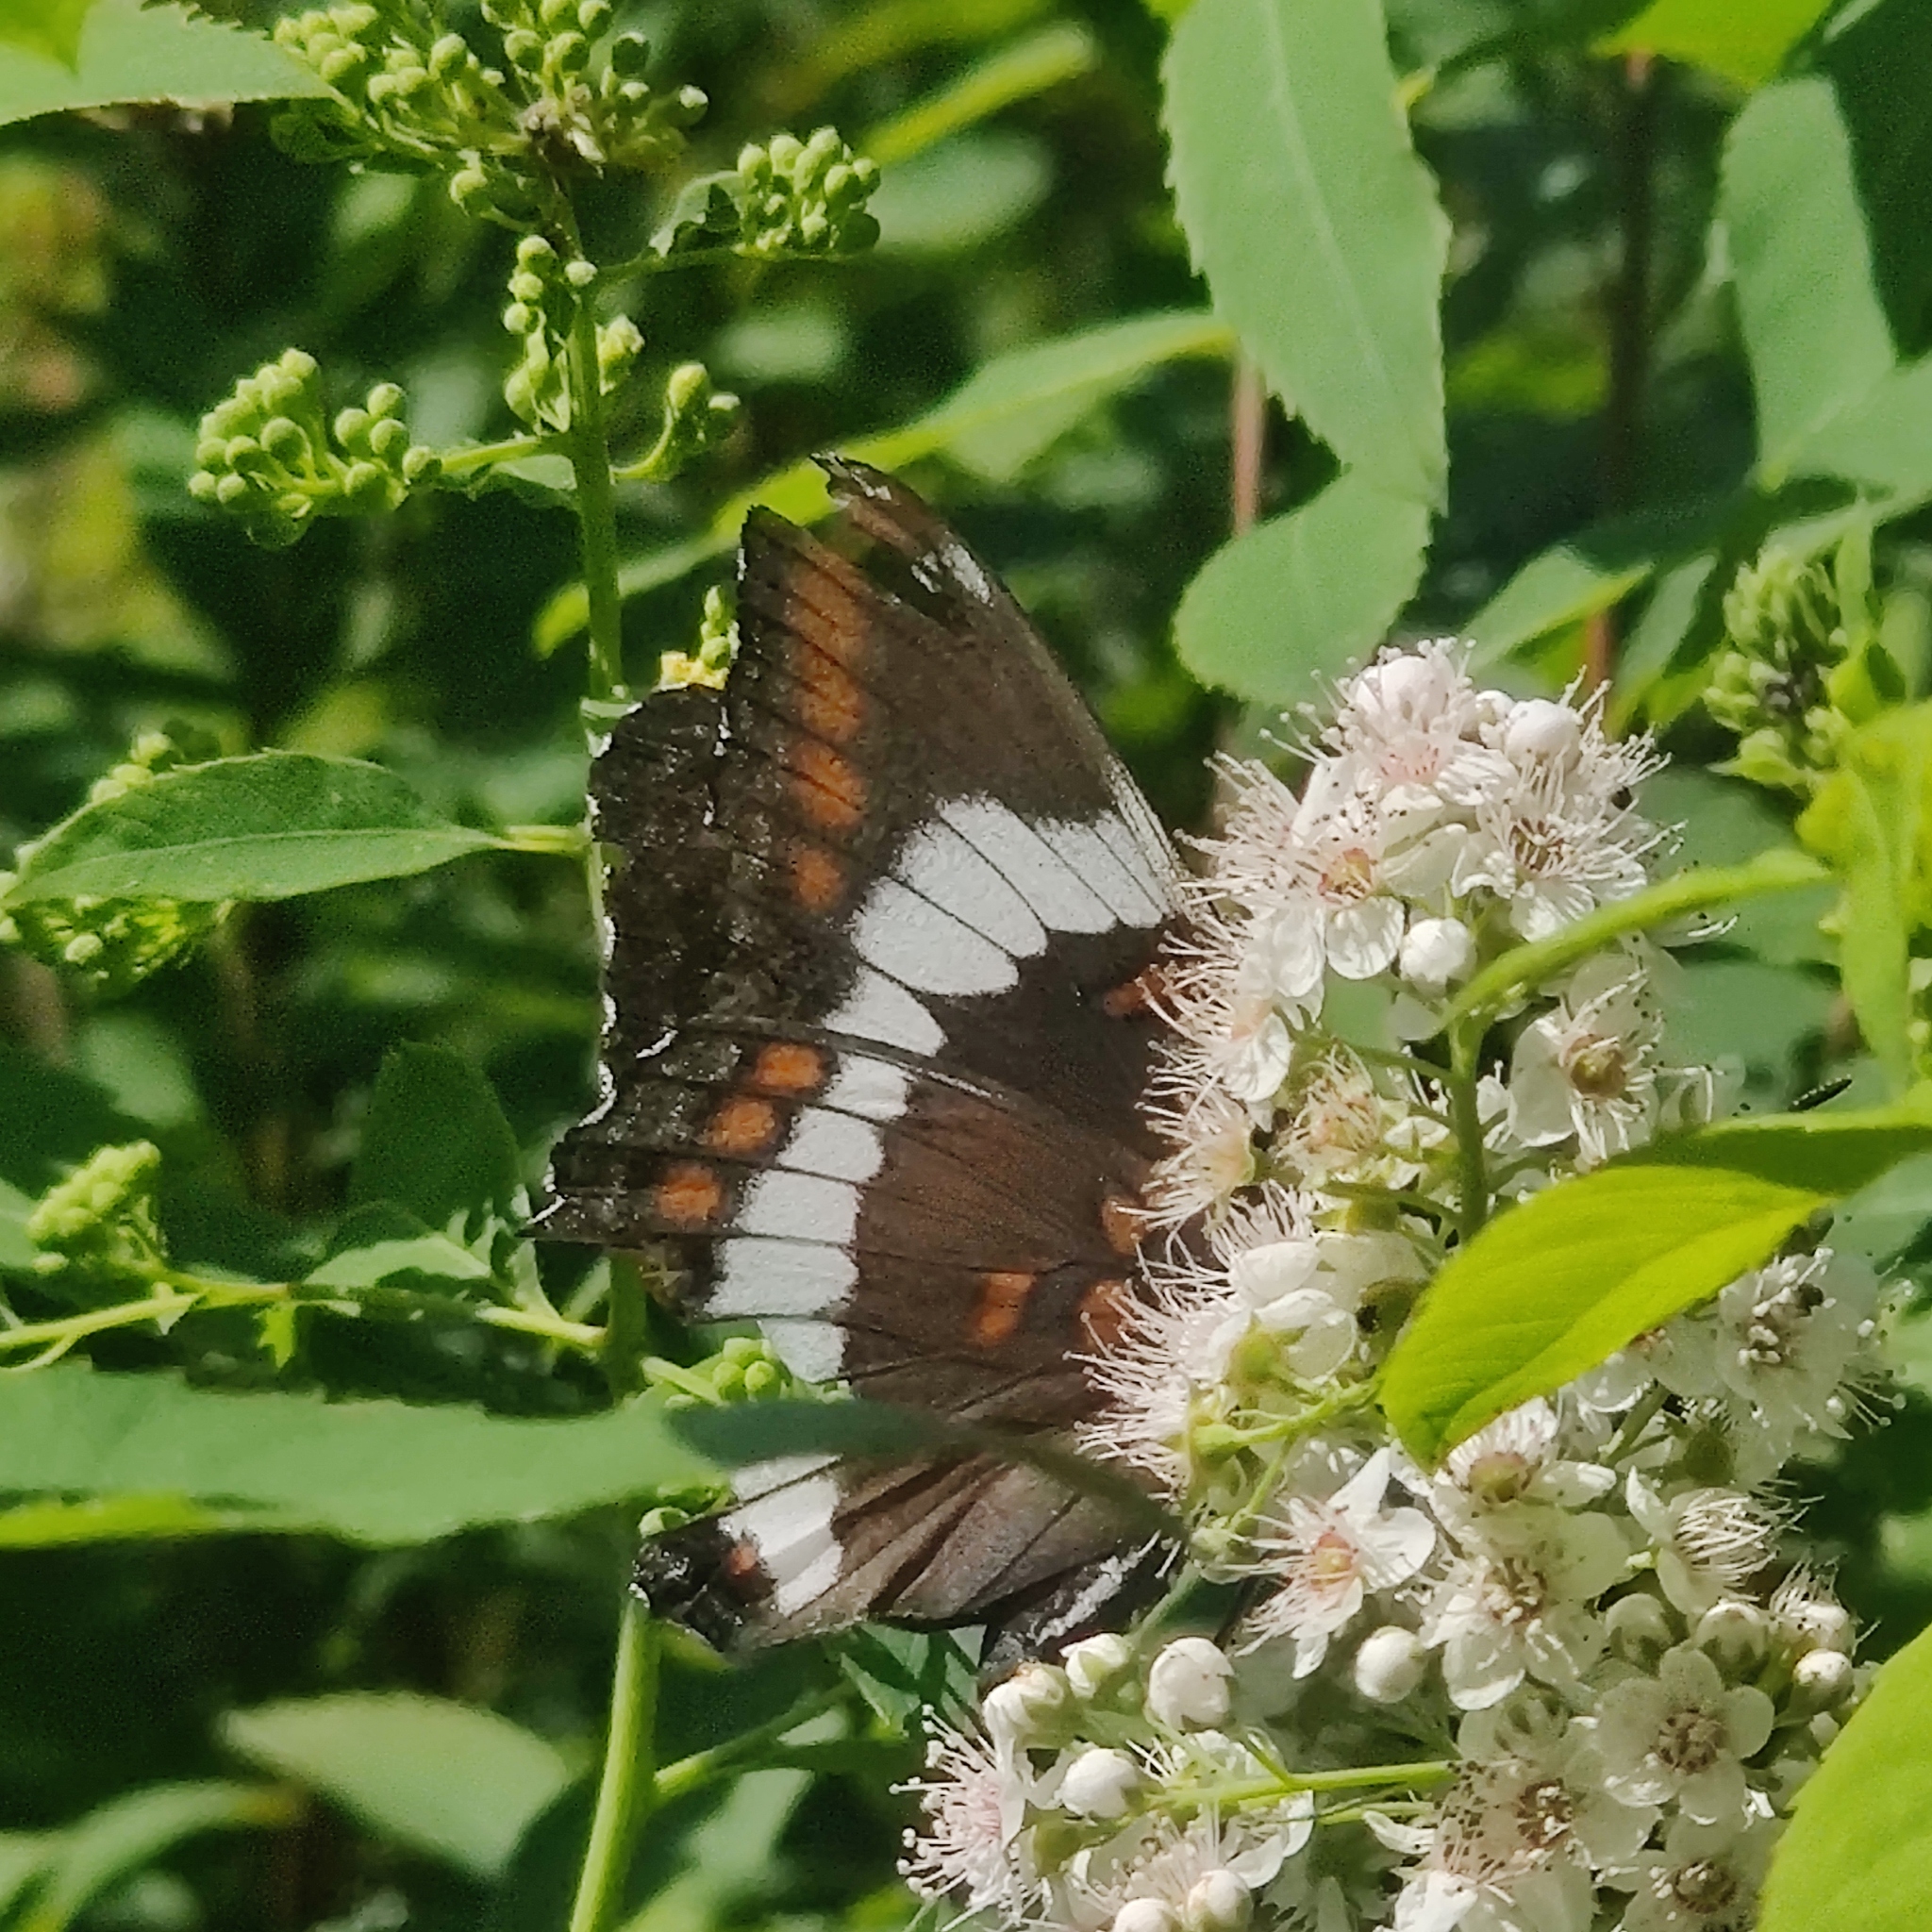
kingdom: Animalia
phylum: Arthropoda
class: Insecta
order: Lepidoptera
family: Nymphalidae
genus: Limenitis
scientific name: Limenitis arthemis
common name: Red-spotted admiral
